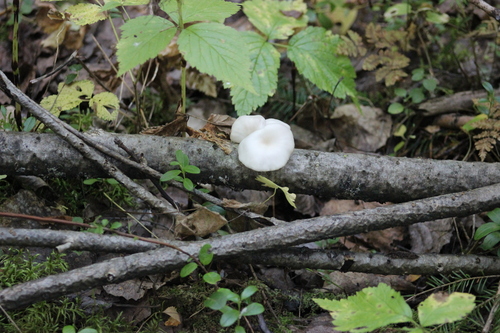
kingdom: Fungi
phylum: Basidiomycota
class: Agaricomycetes
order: Agaricales
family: Pleurotaceae
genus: Pleurotus
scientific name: Pleurotus pulmonarius
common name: Pale oyster
